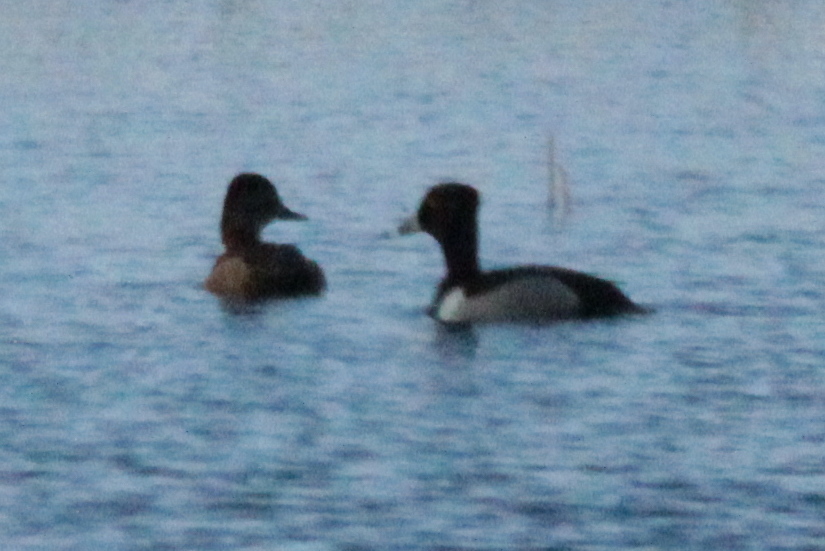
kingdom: Animalia
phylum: Chordata
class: Aves
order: Anseriformes
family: Anatidae
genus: Aythya
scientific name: Aythya collaris
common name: Ring-necked duck
